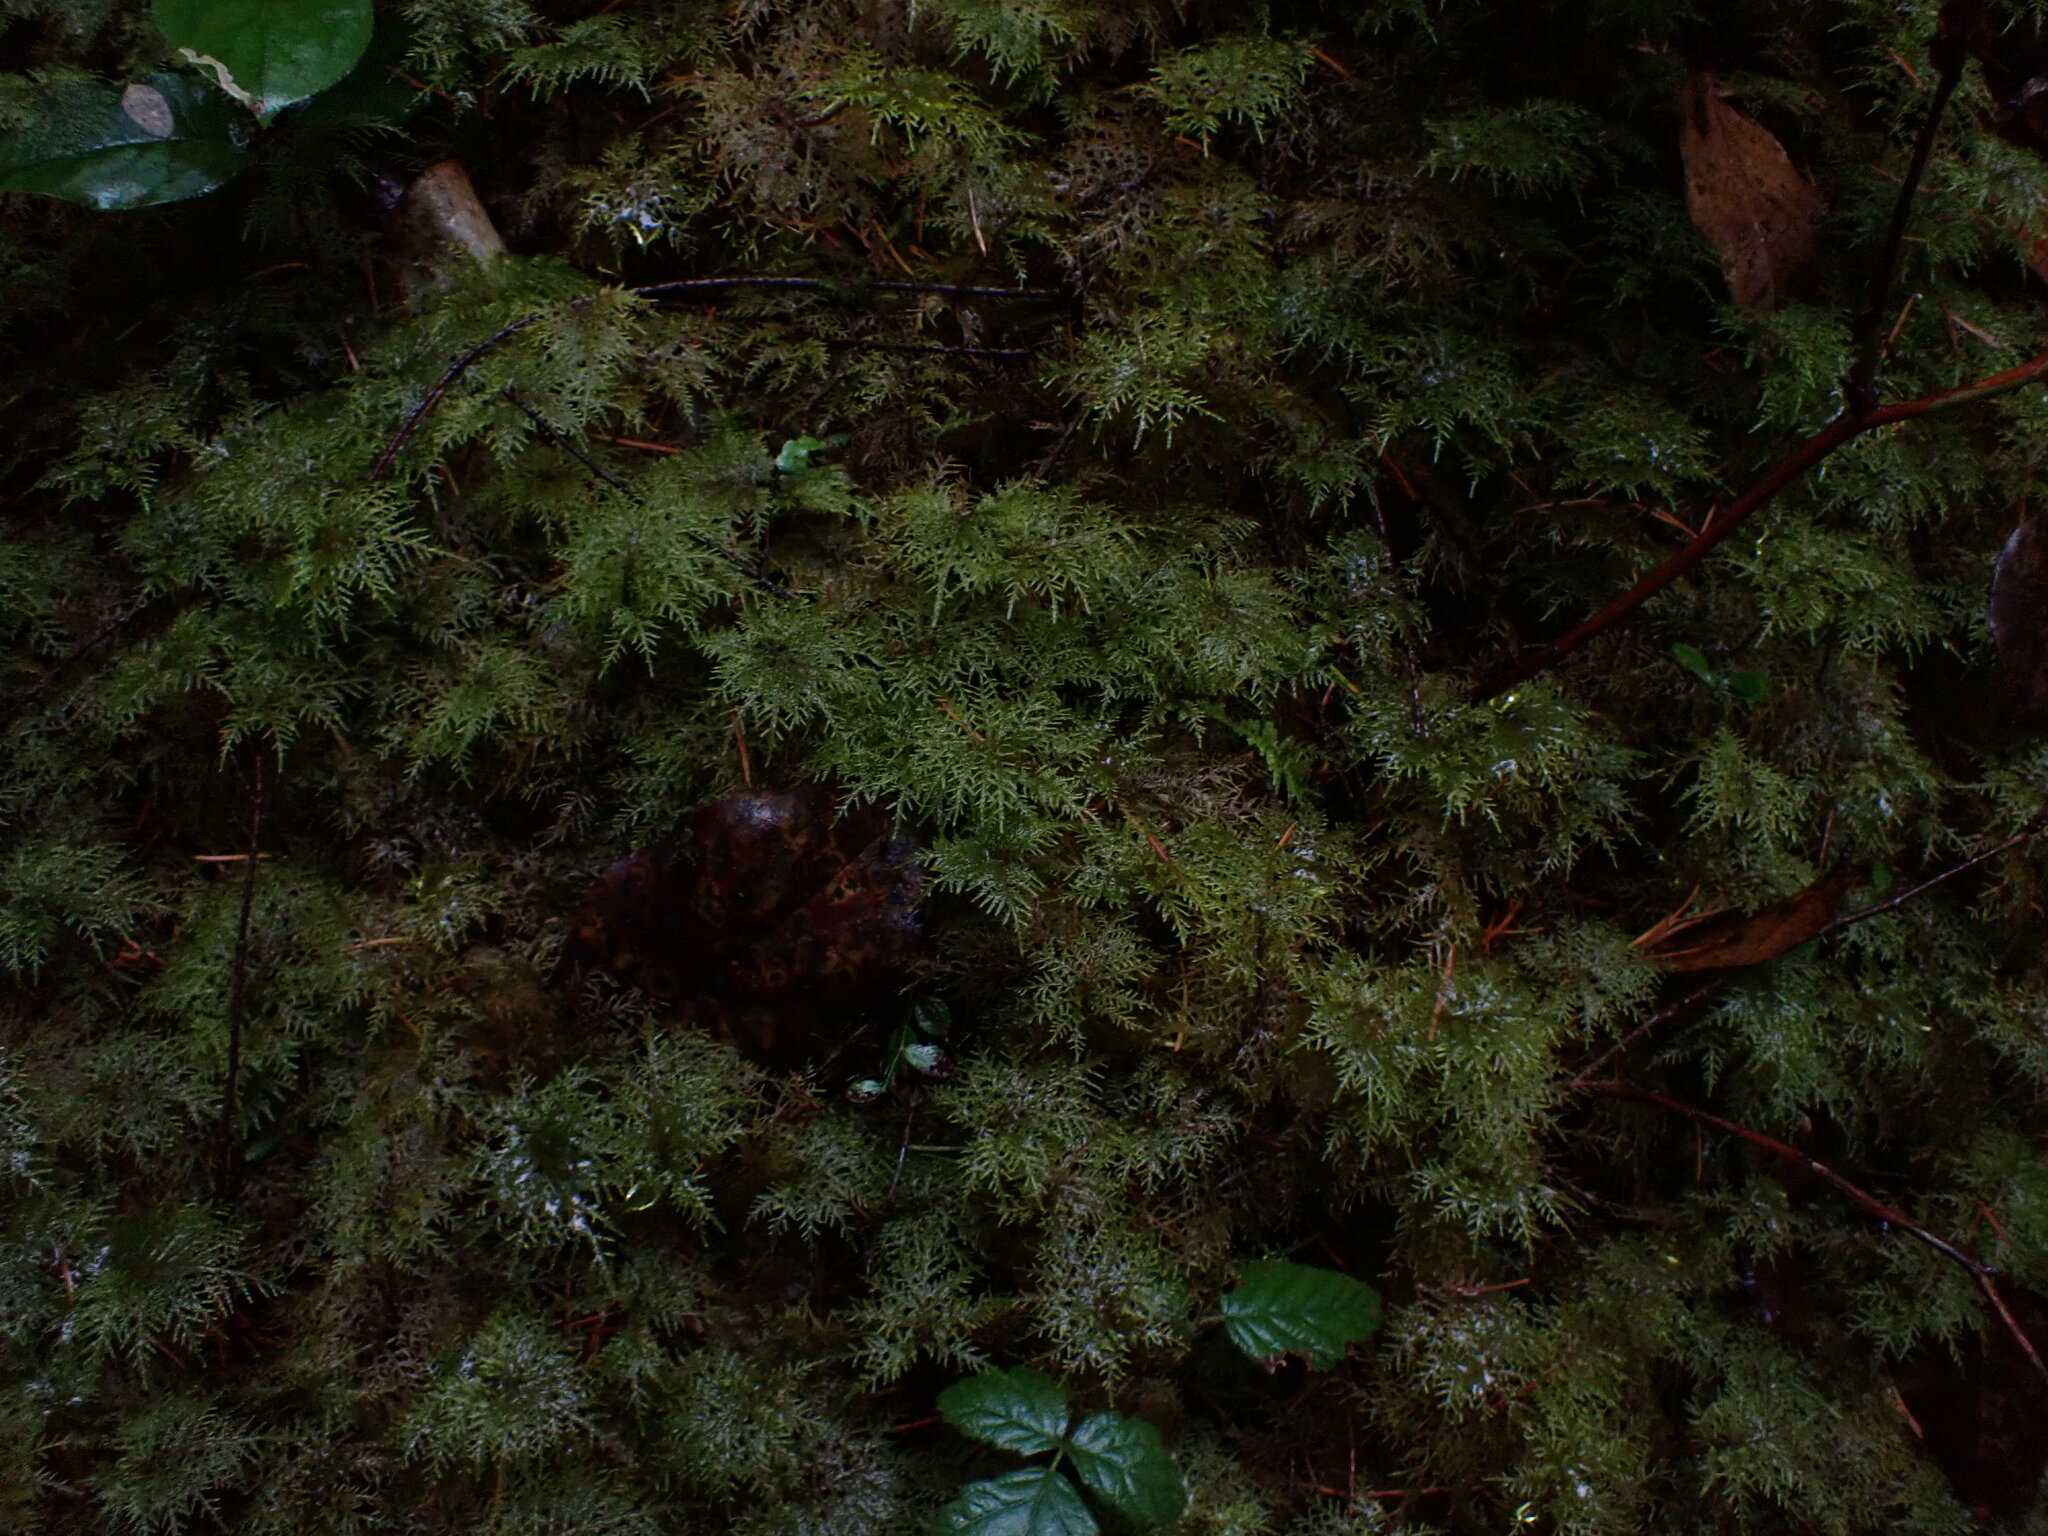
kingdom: Plantae
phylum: Bryophyta
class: Bryopsida
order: Hypnales
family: Hylocomiaceae
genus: Hylocomium
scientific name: Hylocomium splendens
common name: Stairstep moss
